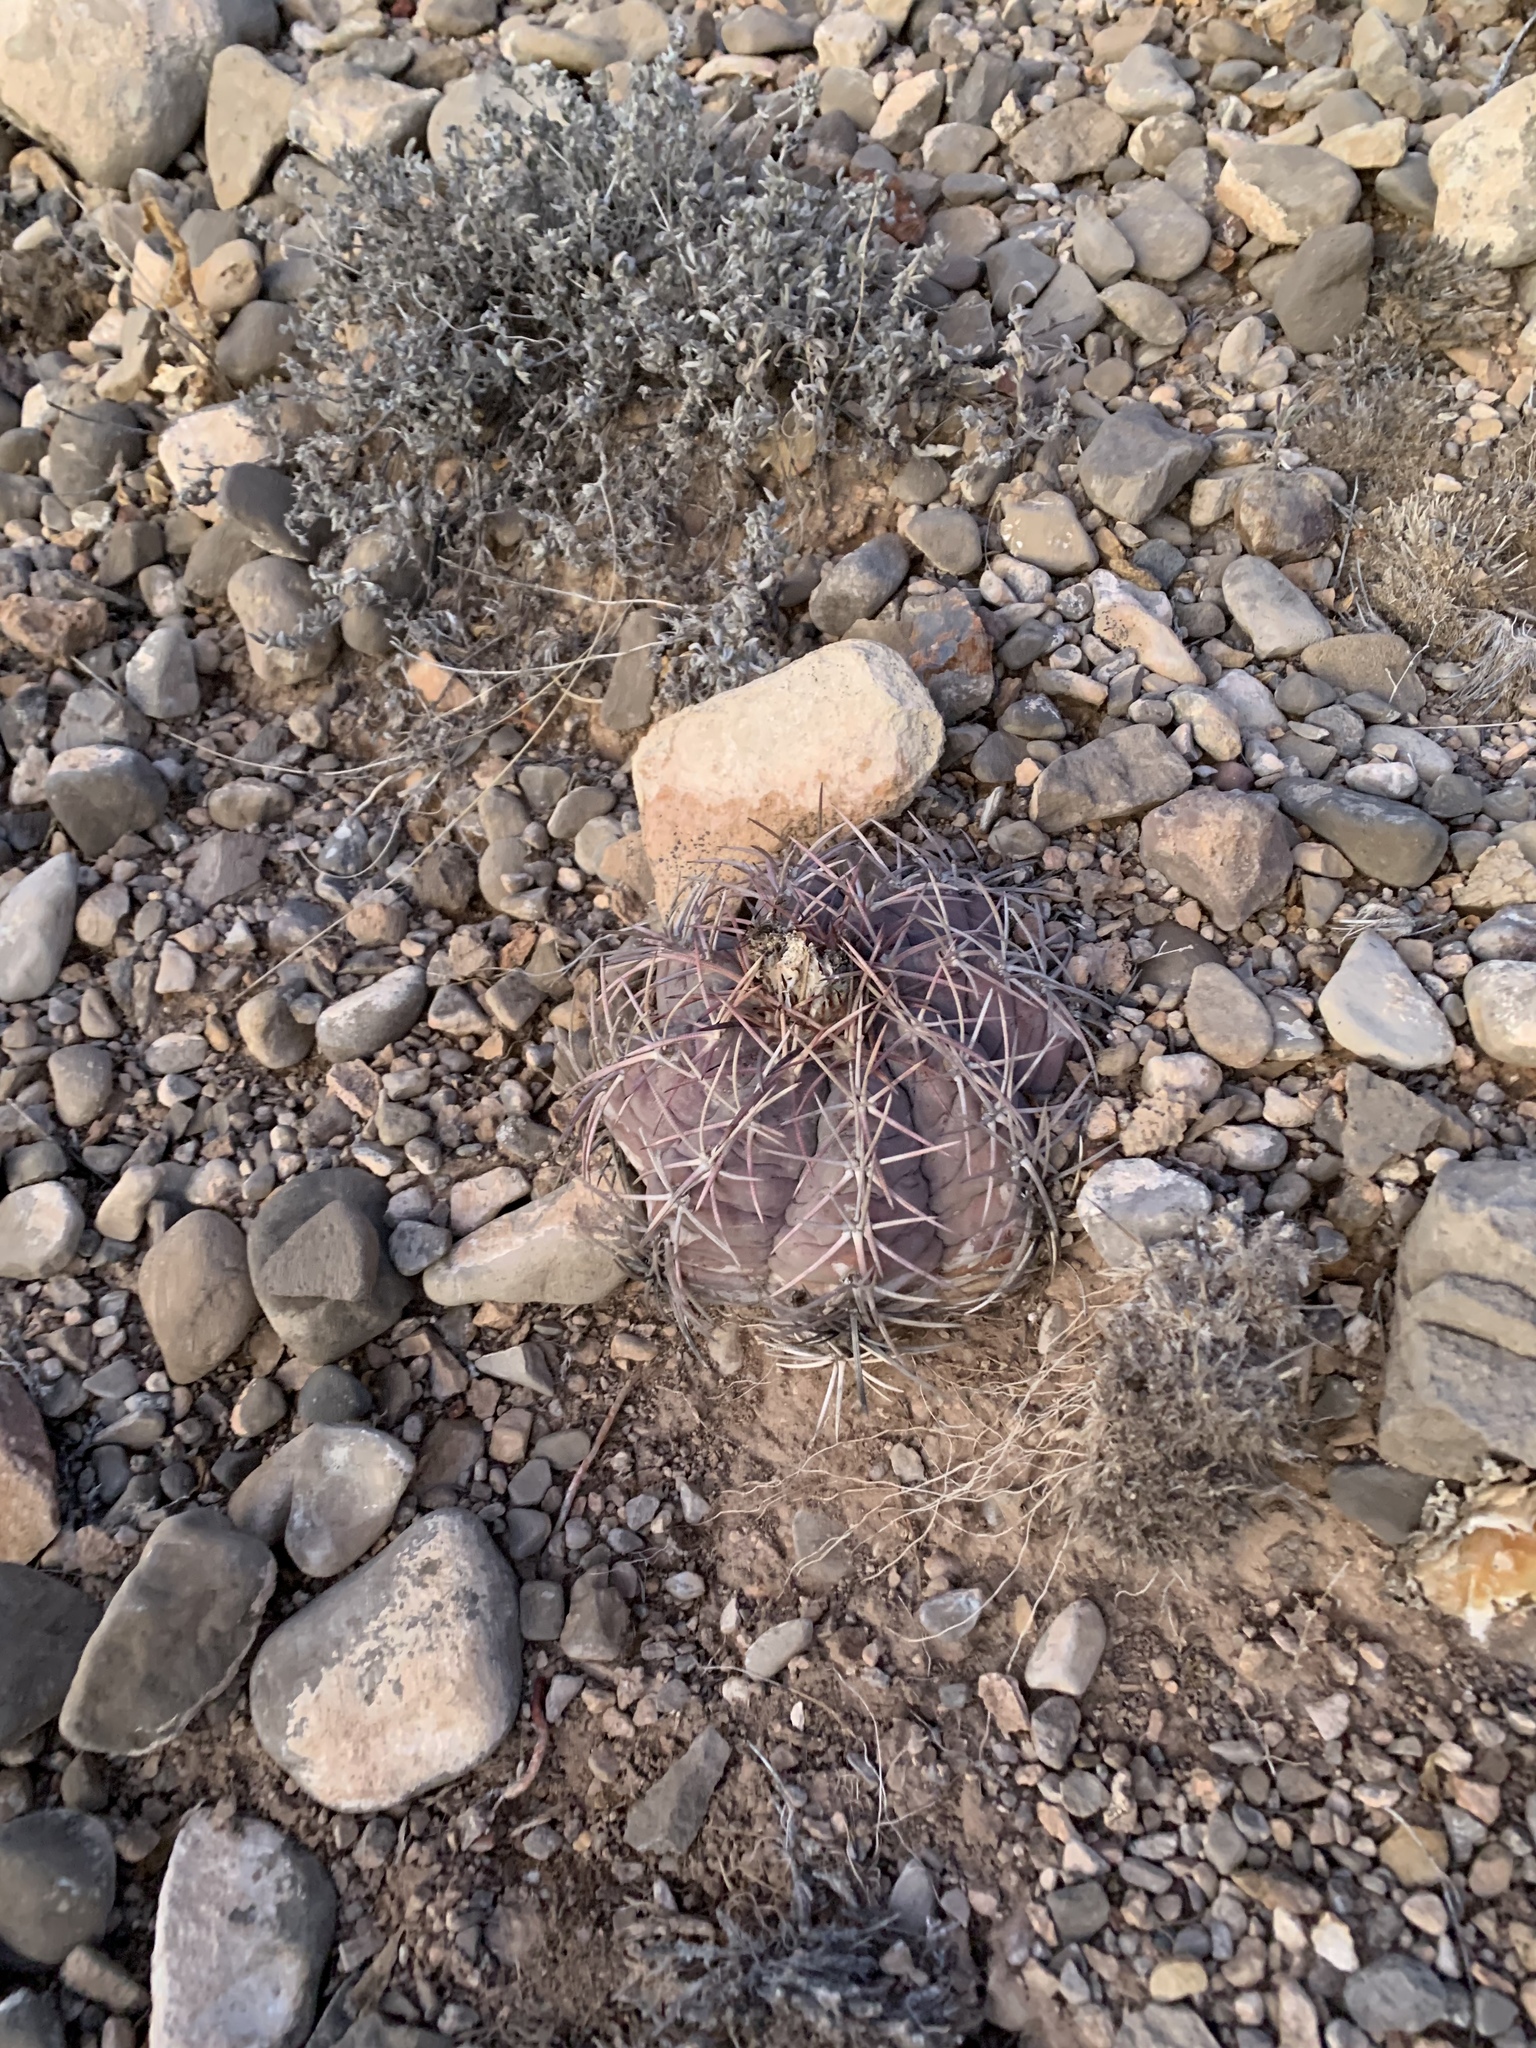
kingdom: Plantae
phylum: Tracheophyta
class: Magnoliopsida
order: Caryophyllales
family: Cactaceae
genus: Echinocactus
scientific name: Echinocactus horizonthalonius
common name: Devilshead
